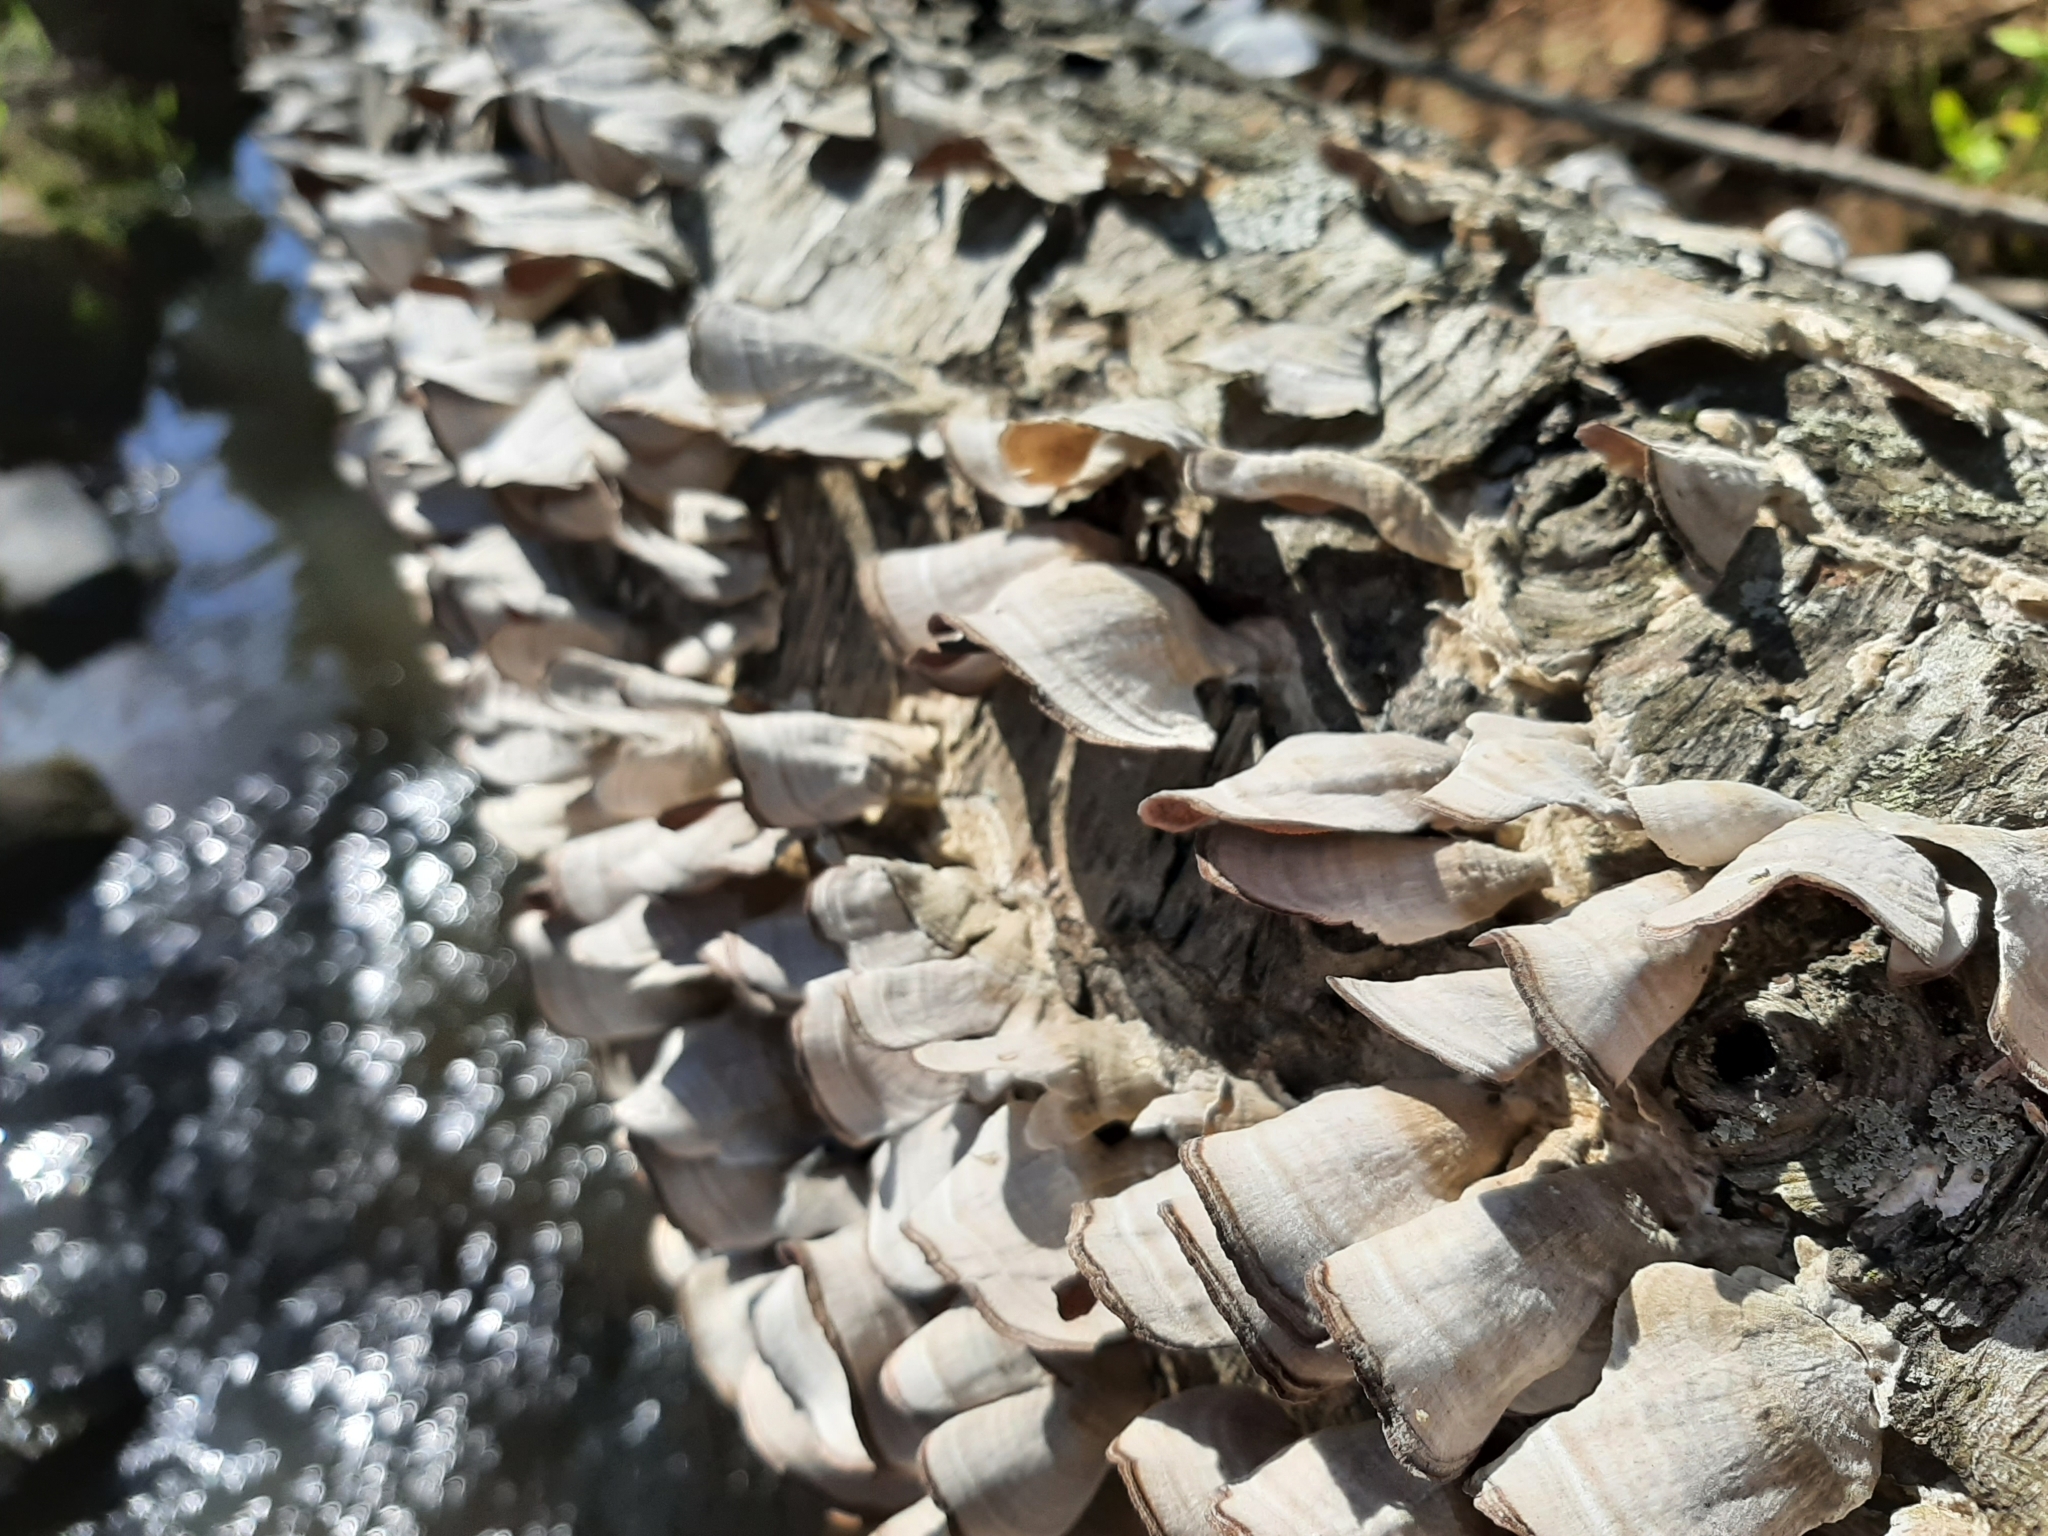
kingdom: Fungi
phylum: Basidiomycota
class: Agaricomycetes
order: Hymenochaetales
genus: Trichaptum
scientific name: Trichaptum biforme
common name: Violet-toothed polypore
